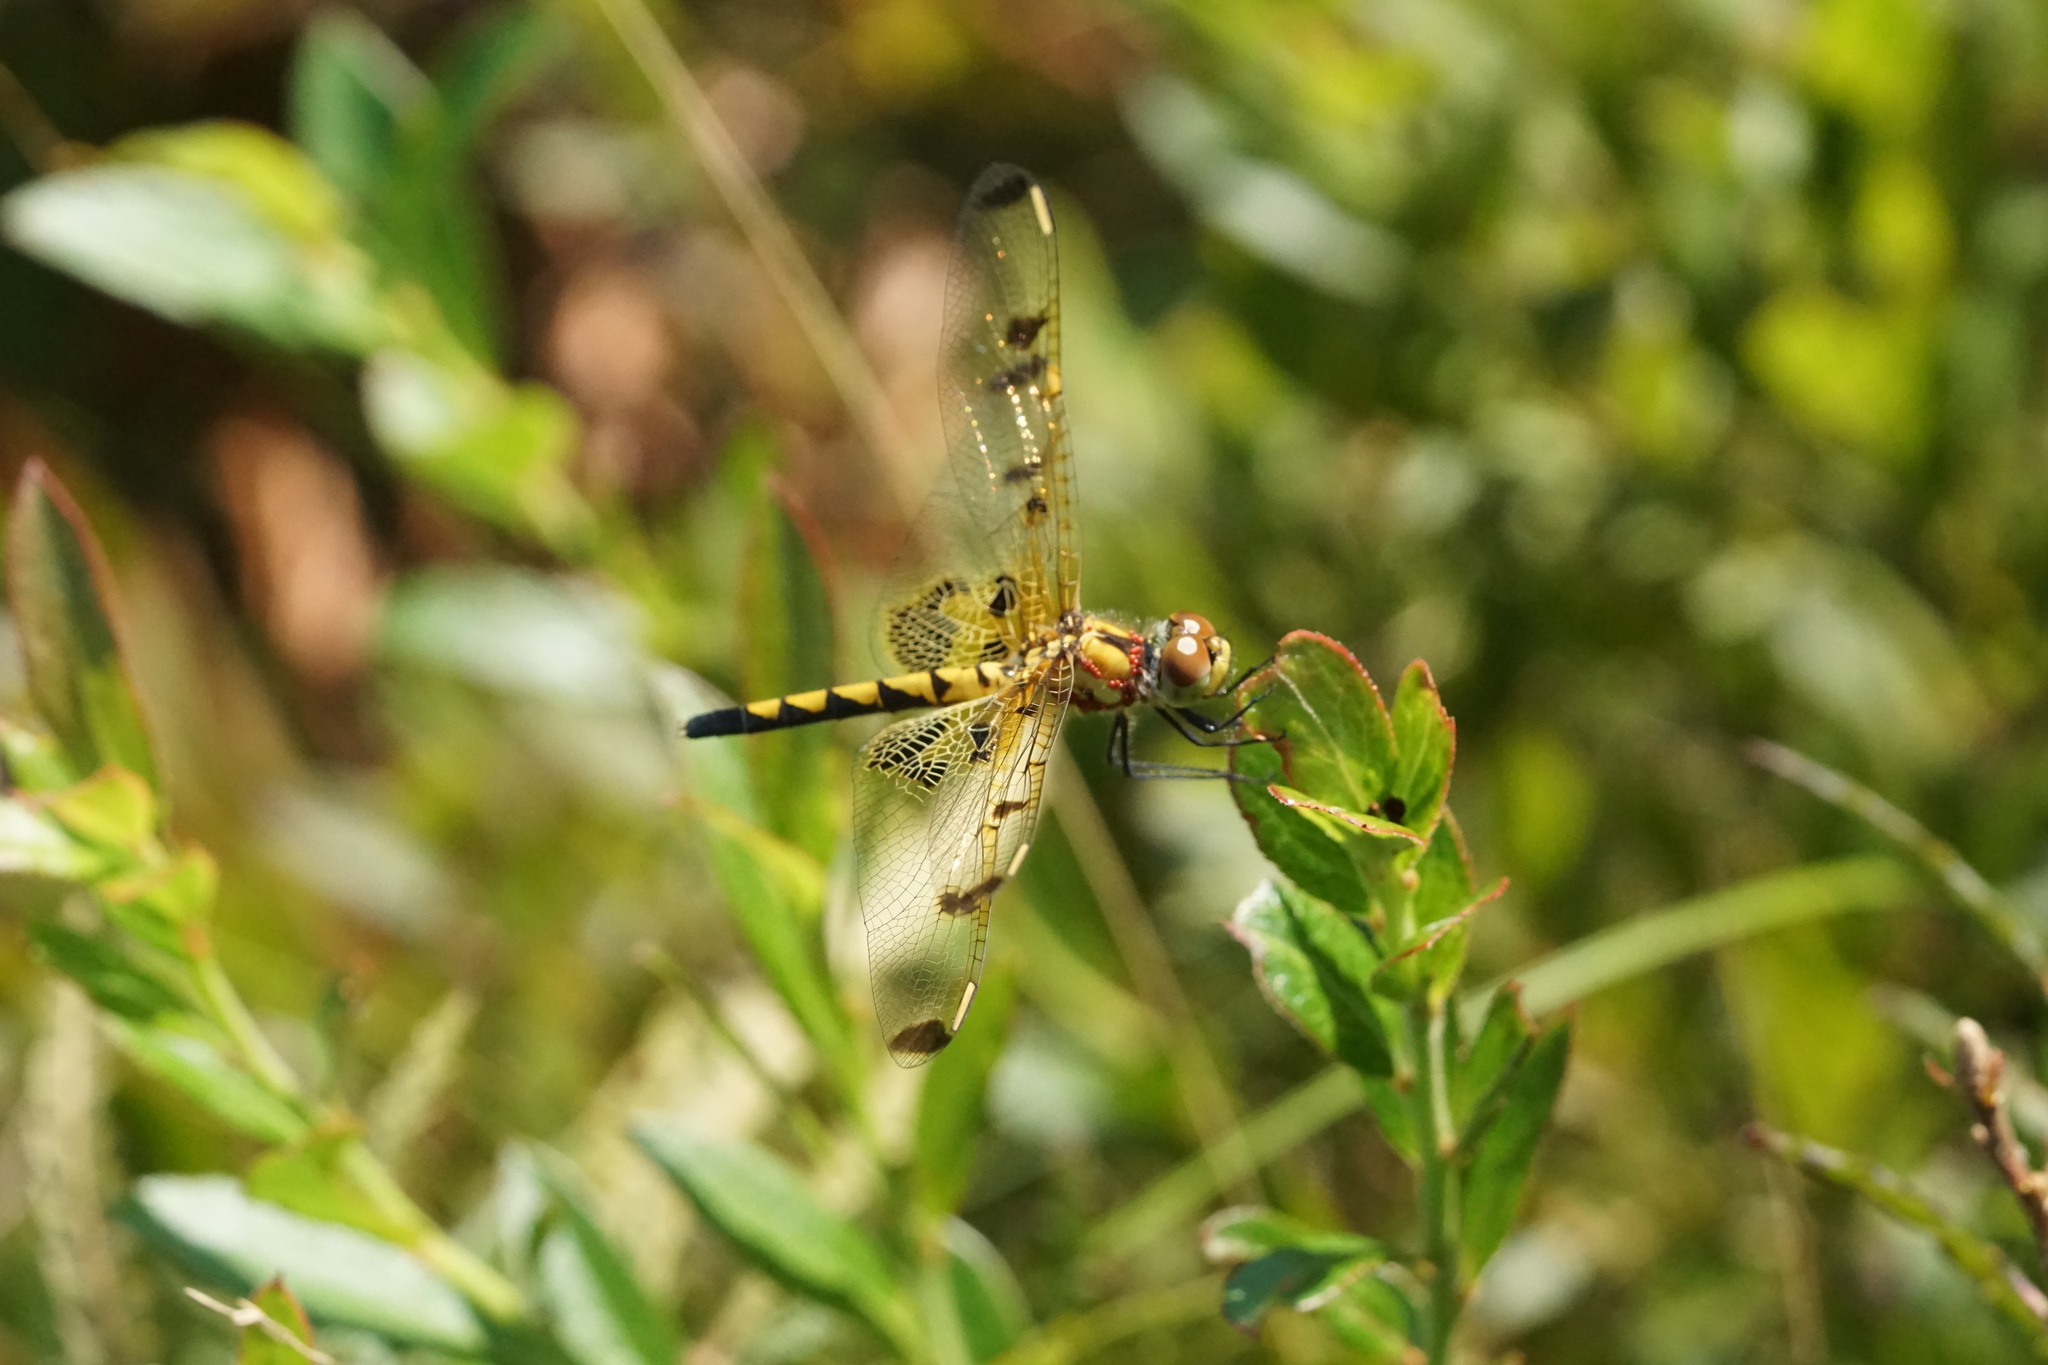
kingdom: Animalia
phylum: Arthropoda
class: Insecta
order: Odonata
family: Libellulidae
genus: Celithemis
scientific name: Celithemis elisa
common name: Calico pennant
